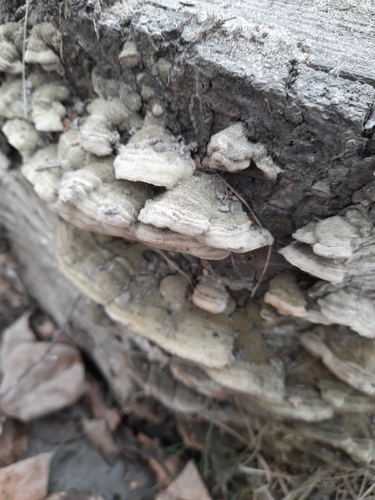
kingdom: Fungi
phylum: Basidiomycota
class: Agaricomycetes
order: Polyporales
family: Cerrenaceae
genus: Cerrena
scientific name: Cerrena unicolor
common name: Mossy maze polypore
